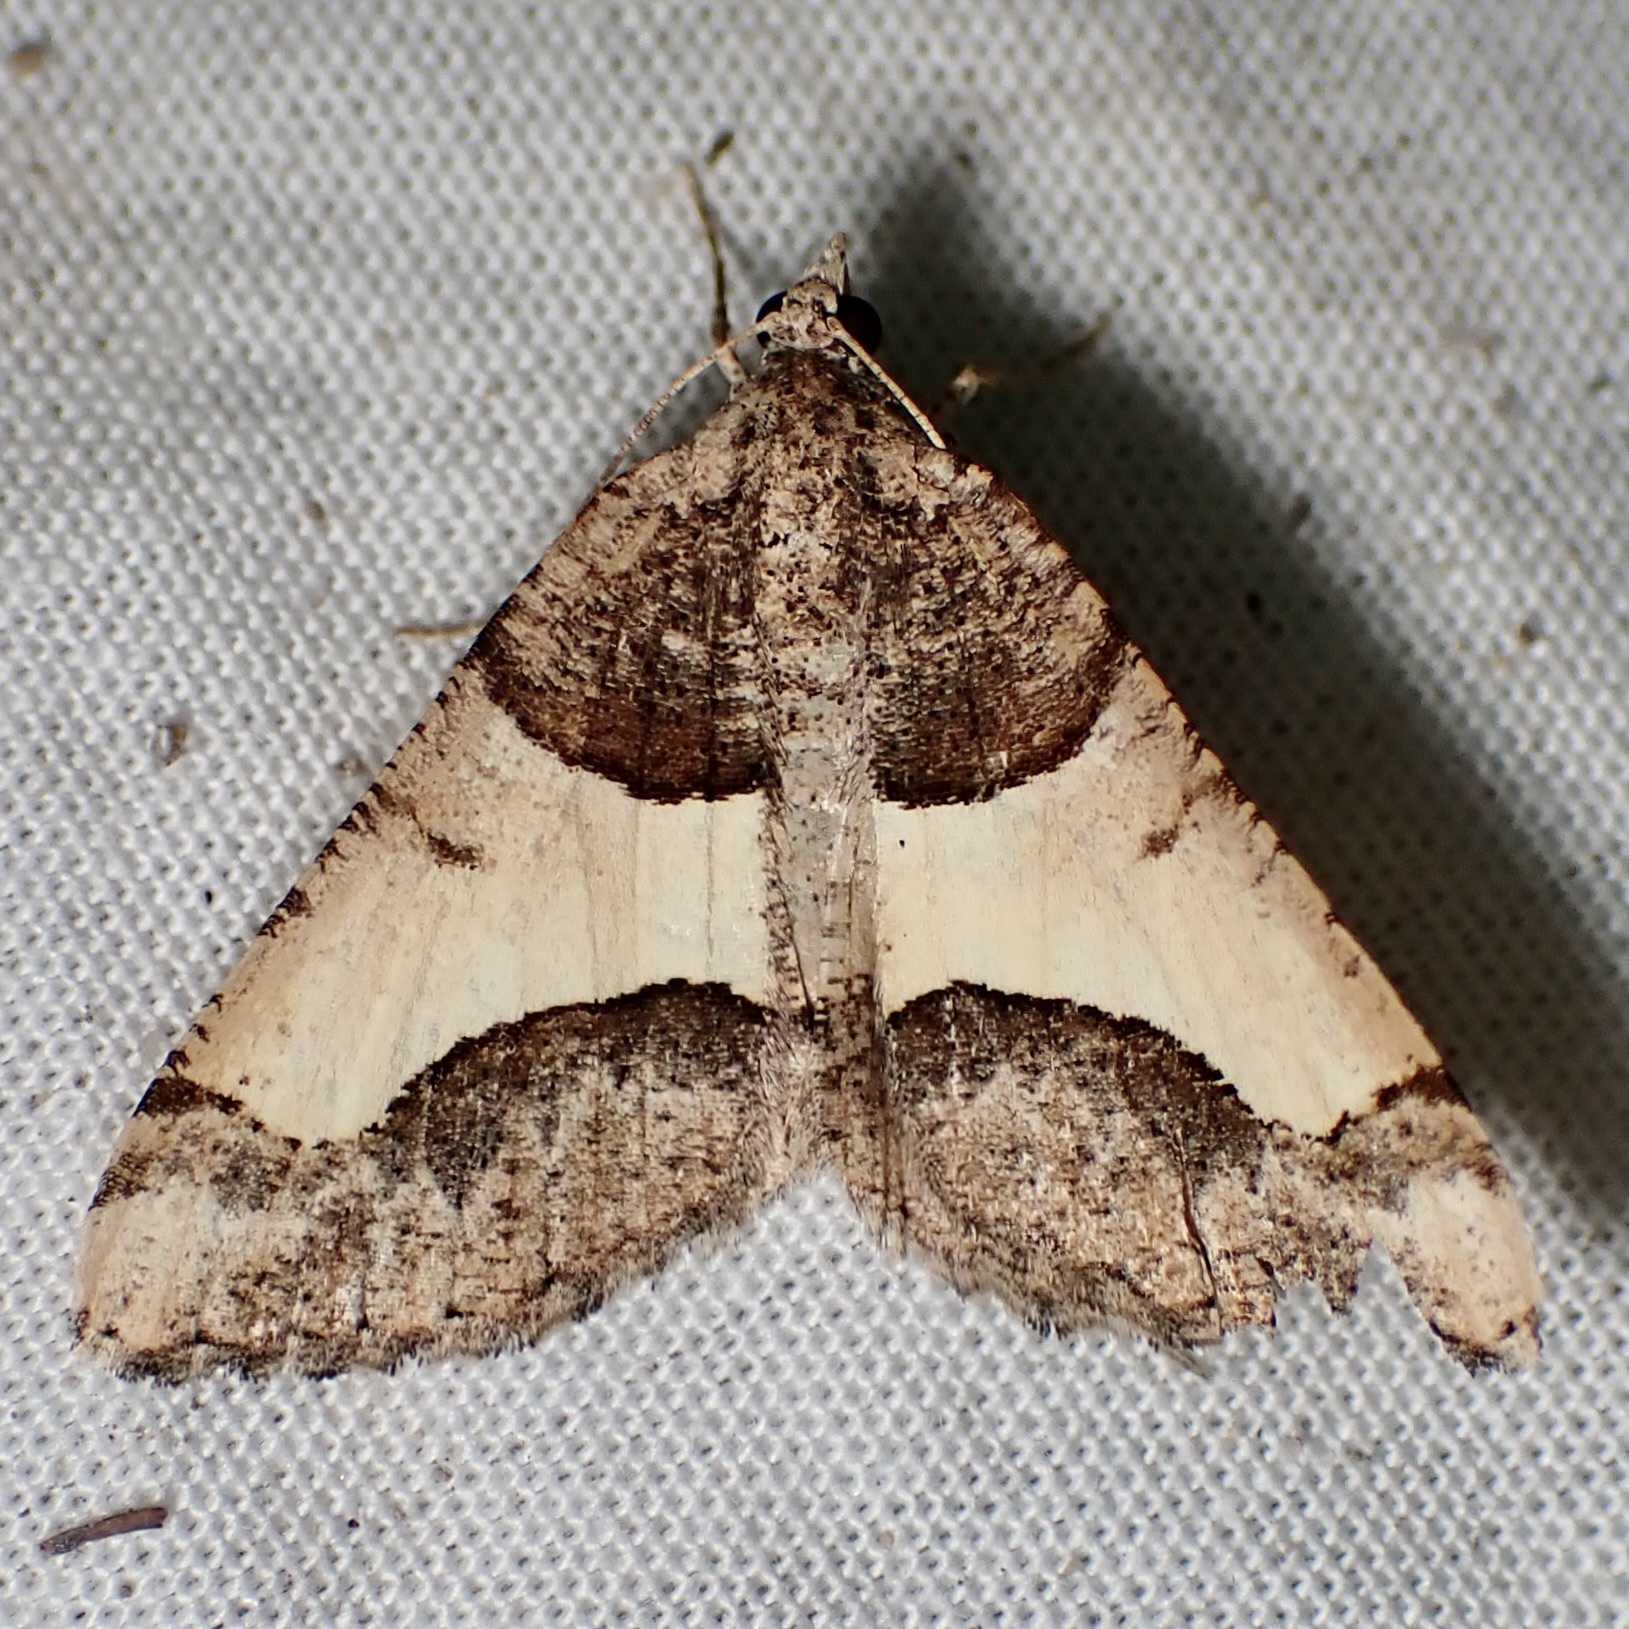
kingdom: Animalia
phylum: Arthropoda
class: Insecta
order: Lepidoptera
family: Geometridae
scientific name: Geometridae
